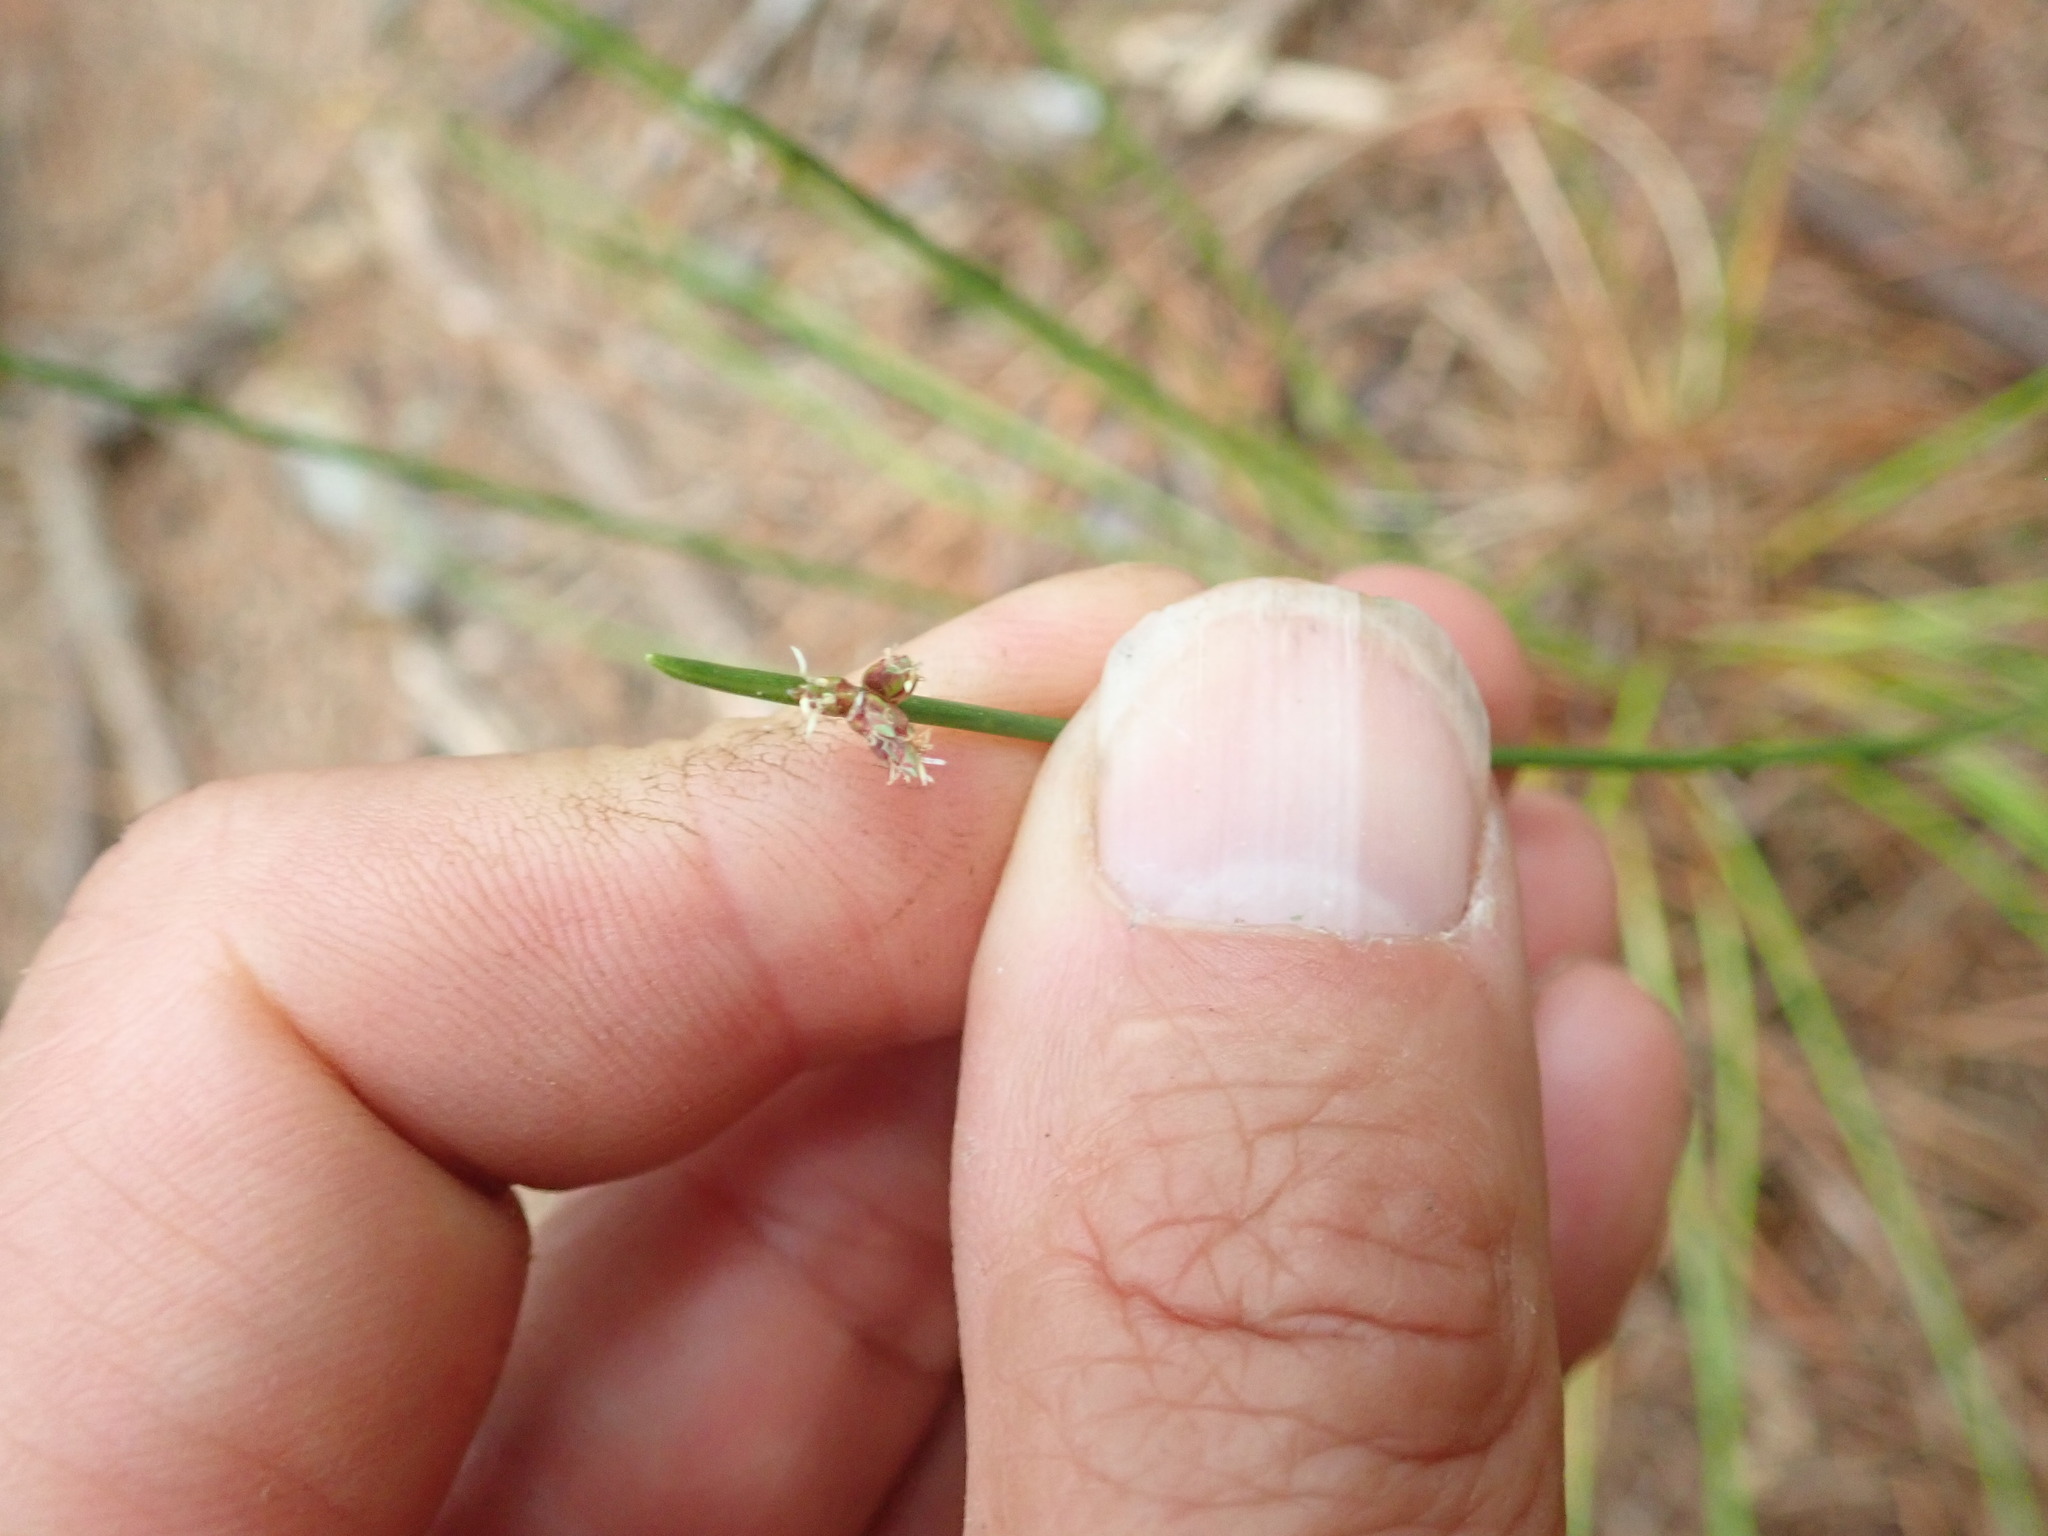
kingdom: Plantae
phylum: Tracheophyta
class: Liliopsida
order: Poales
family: Cyperaceae
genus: Ficinia
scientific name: Ficinia nodosa
